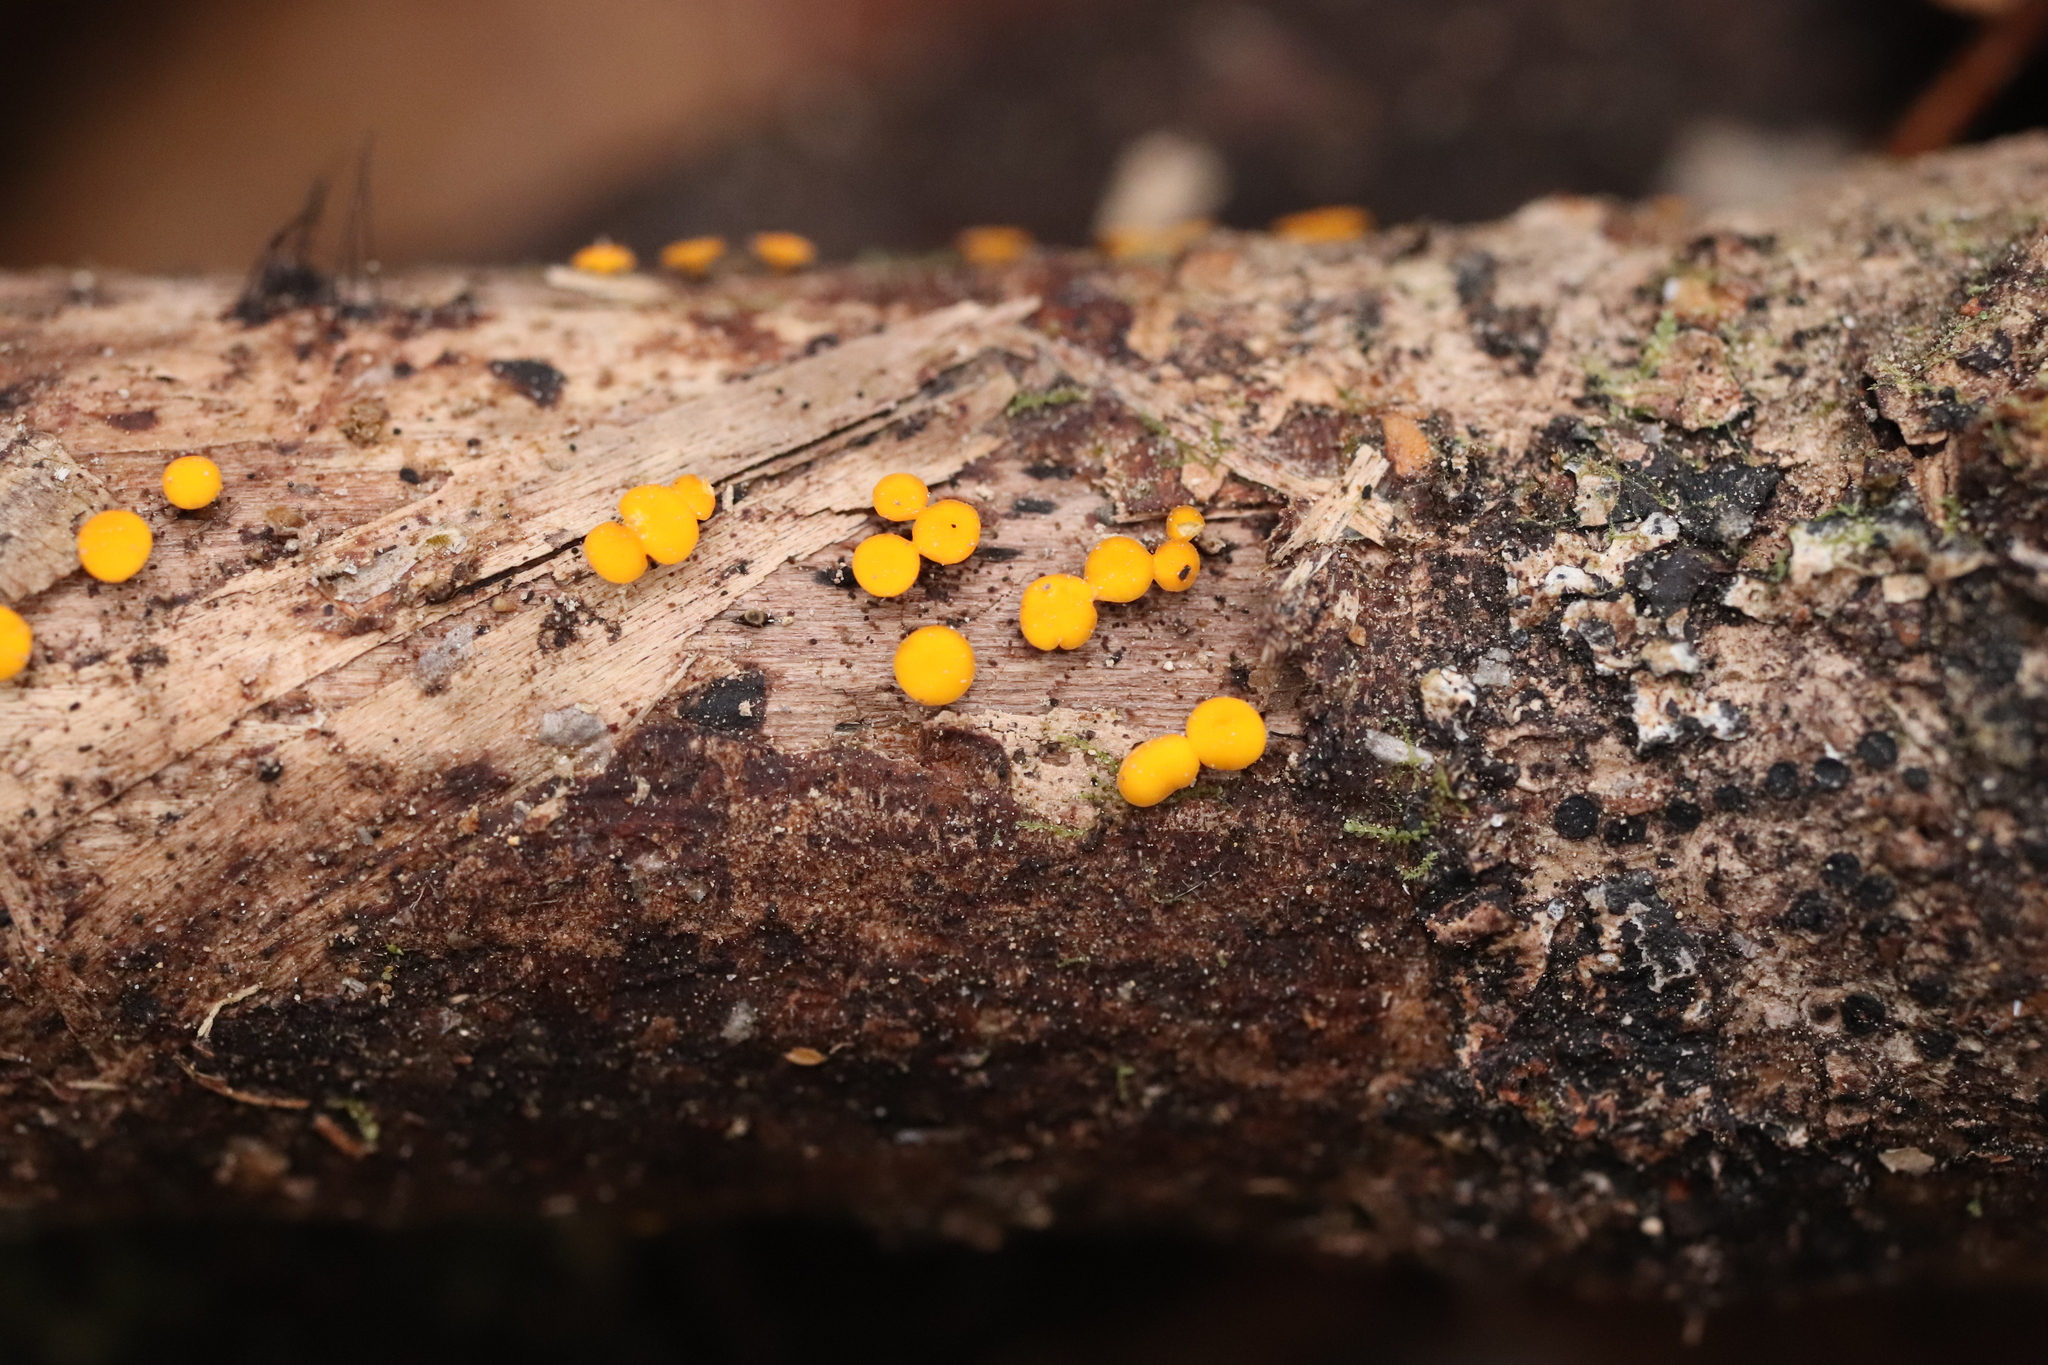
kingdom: Fungi
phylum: Ascomycota
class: Leotiomycetes
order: Helotiales
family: Helotiaceae
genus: Dicephalospora
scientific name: Dicephalospora rufocornea
